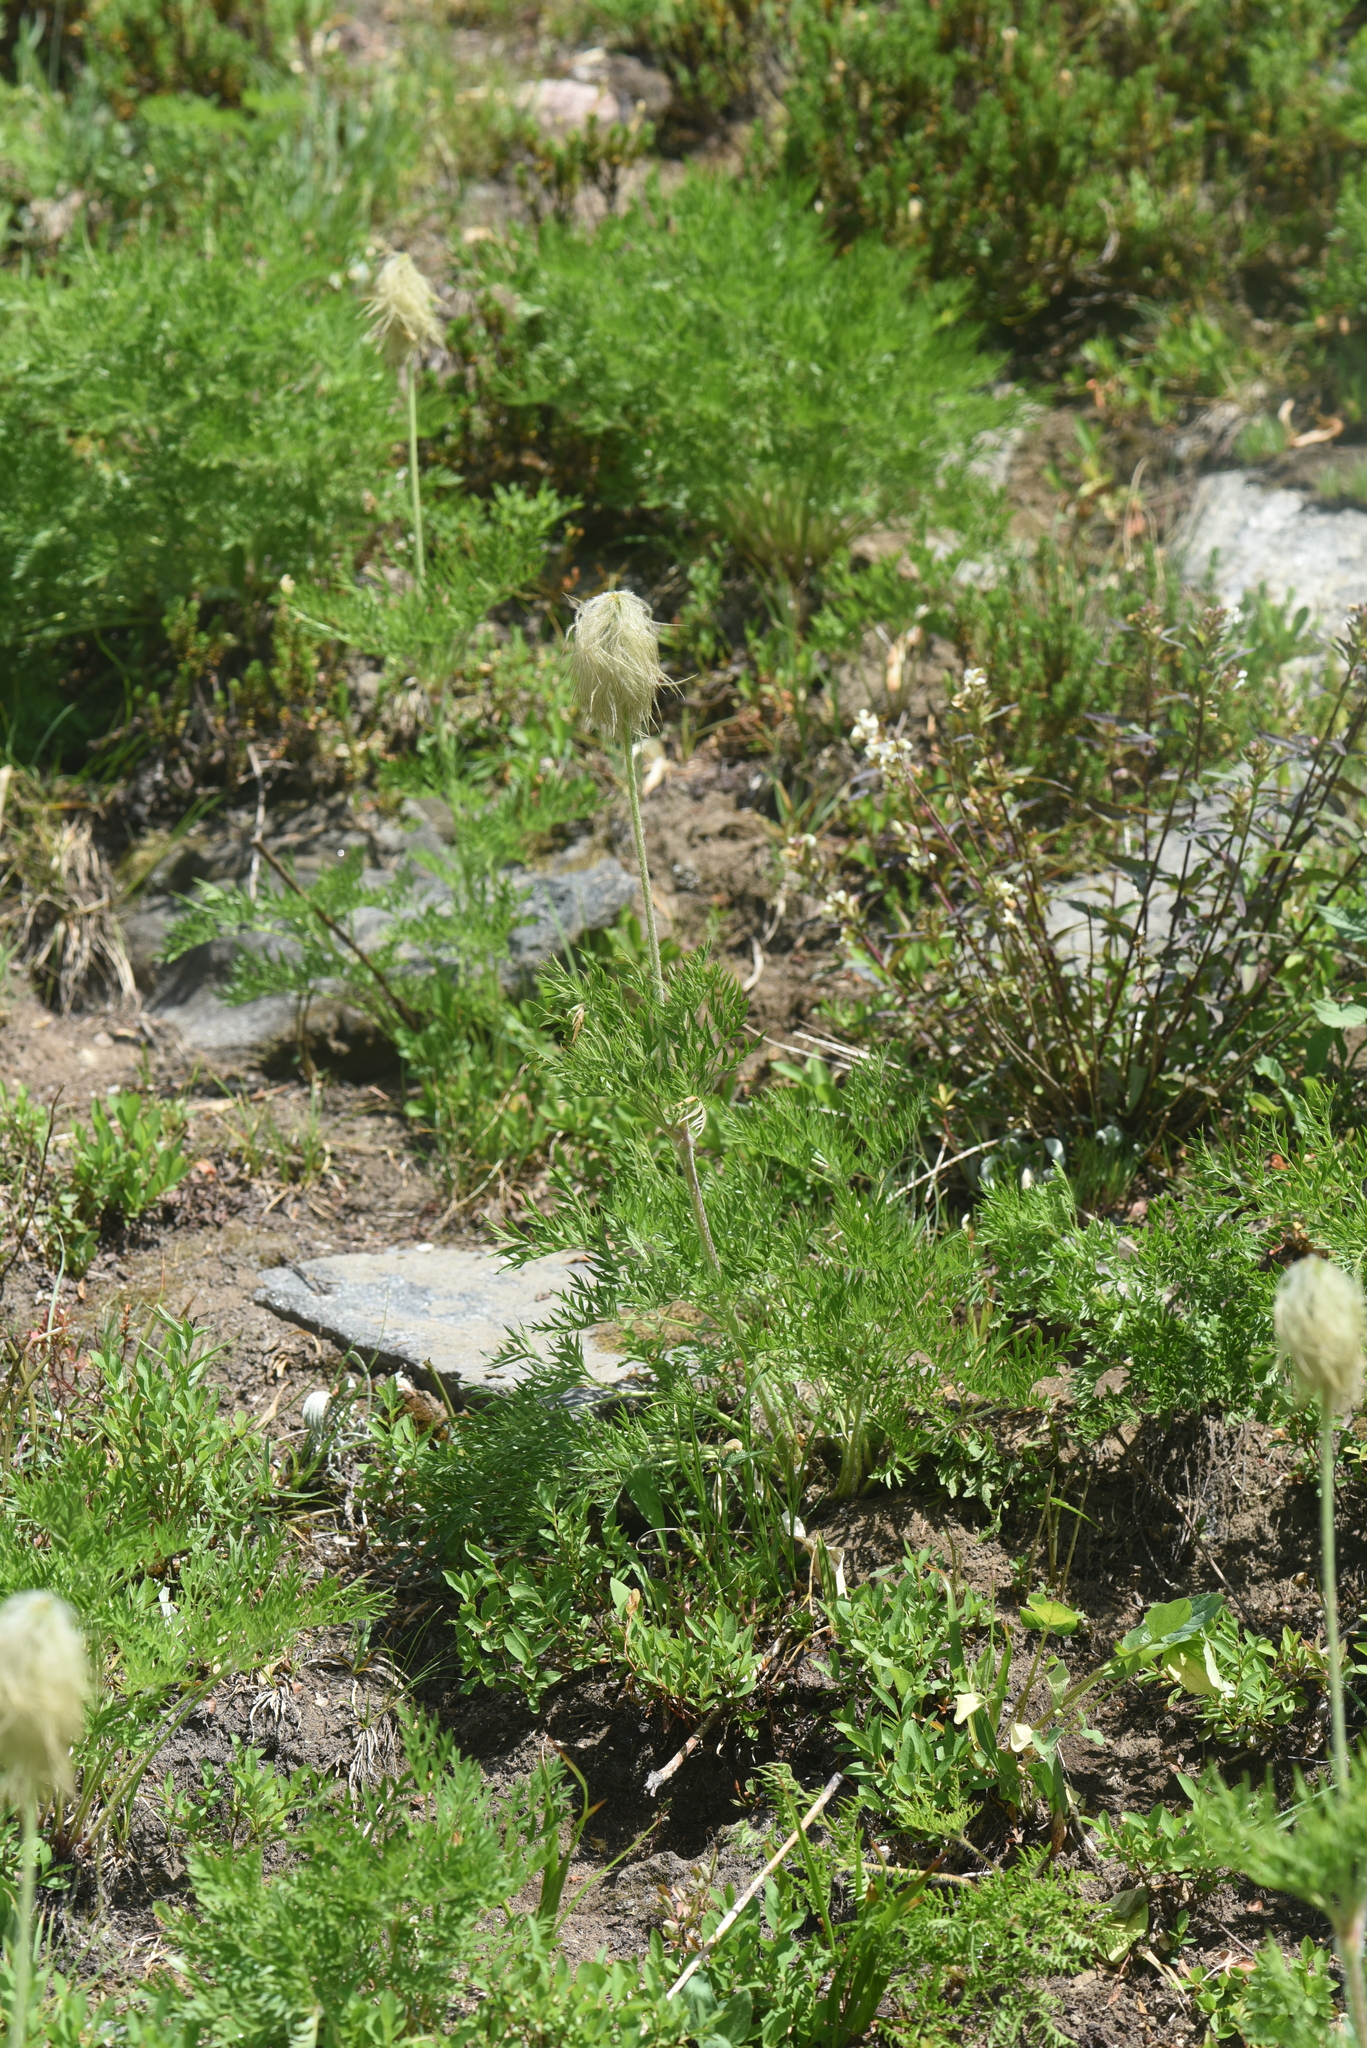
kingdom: Plantae
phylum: Tracheophyta
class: Magnoliopsida
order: Ranunculales
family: Ranunculaceae
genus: Pulsatilla
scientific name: Pulsatilla occidentalis
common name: Mountain pasqueflower
